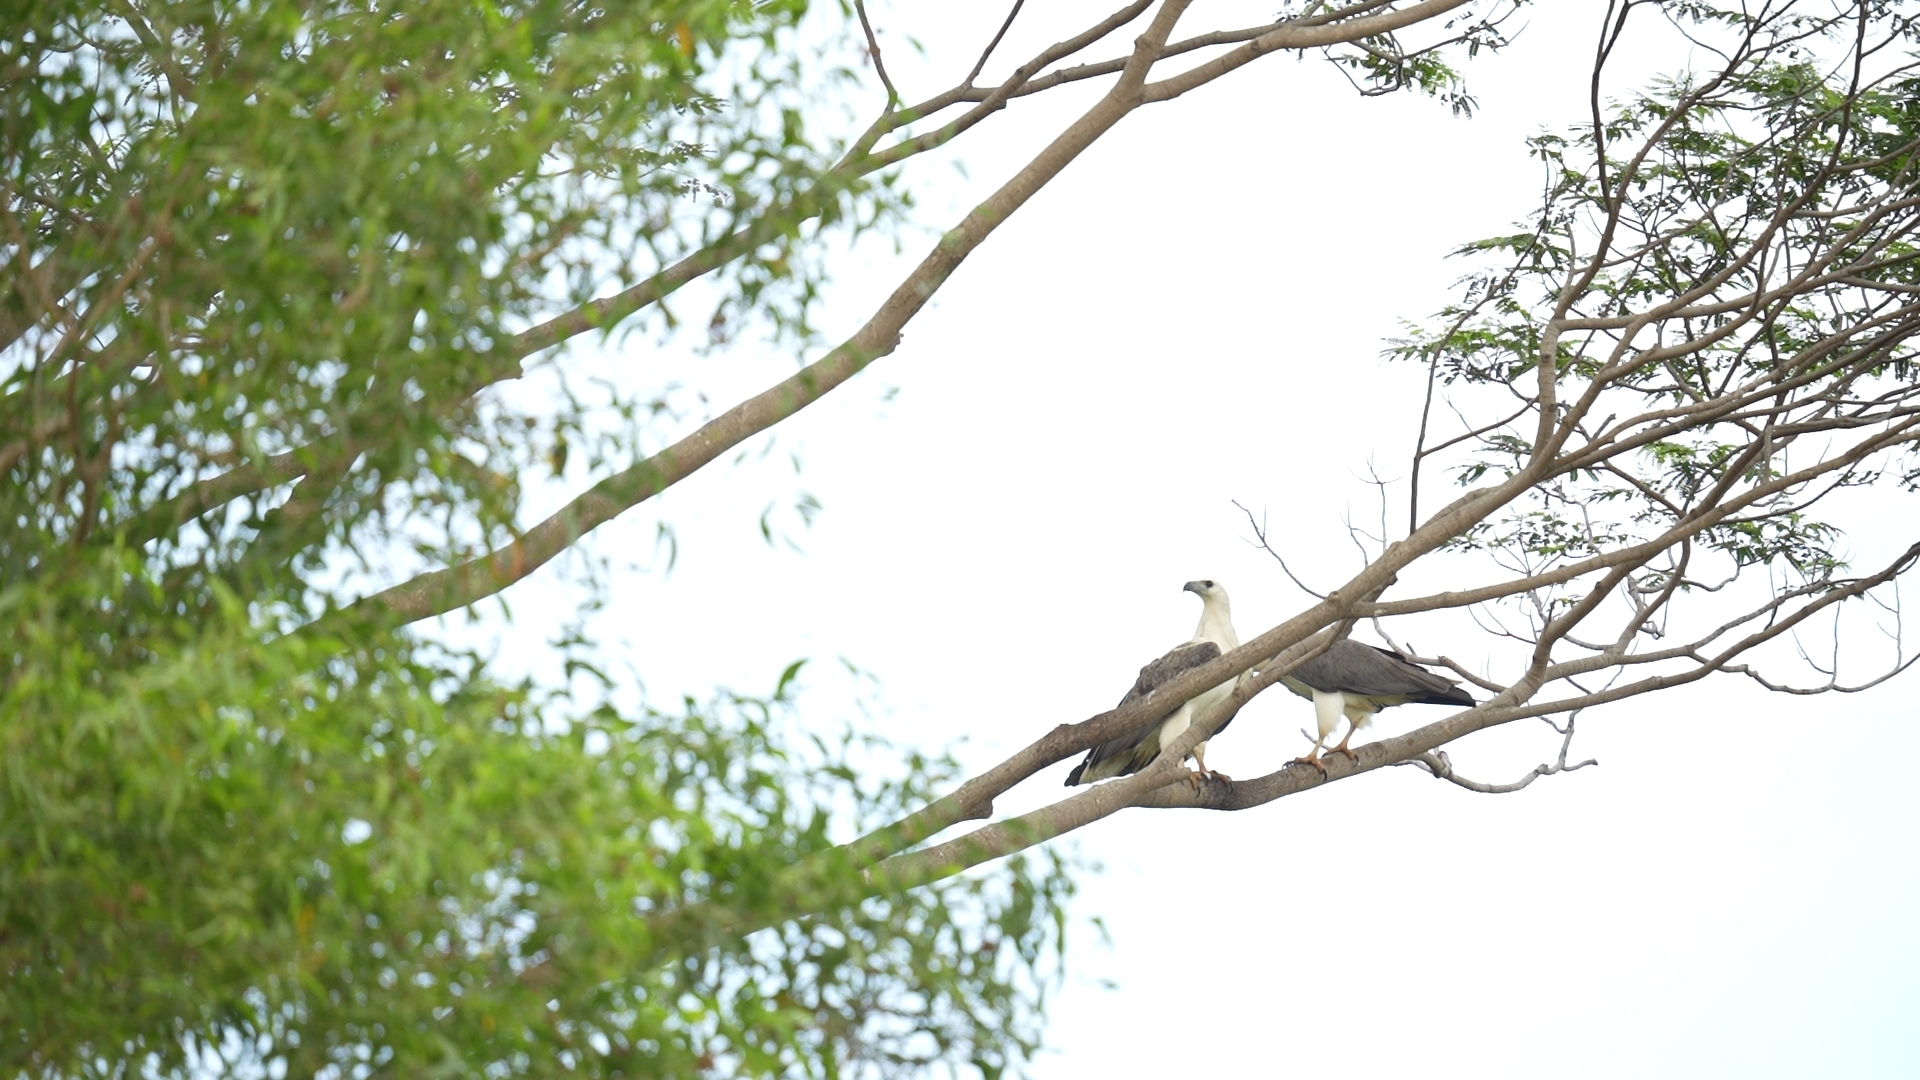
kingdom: Animalia
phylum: Chordata
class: Aves
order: Accipitriformes
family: Accipitridae
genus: Haliaeetus
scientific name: Haliaeetus leucogaster
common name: White-bellied sea eagle
